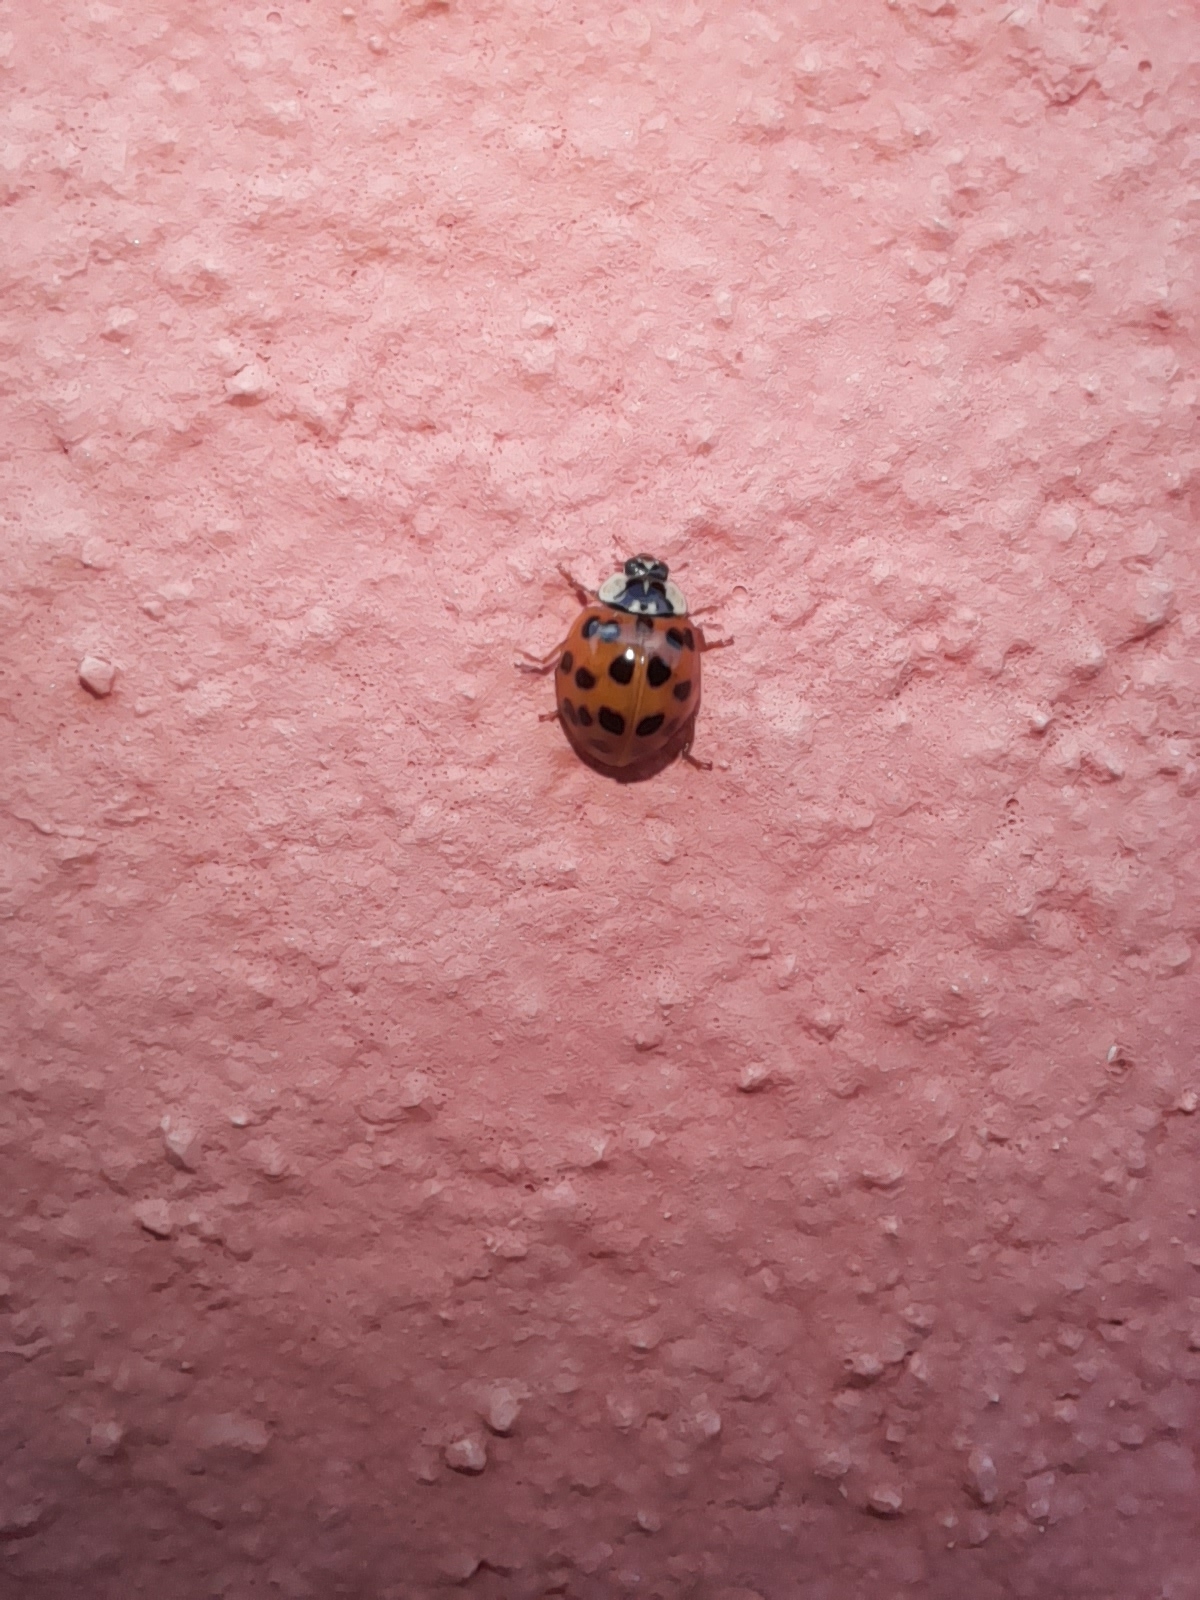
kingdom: Animalia
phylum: Arthropoda
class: Insecta
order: Coleoptera
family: Coccinellidae
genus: Harmonia
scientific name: Harmonia axyridis
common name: Harlequin ladybird
